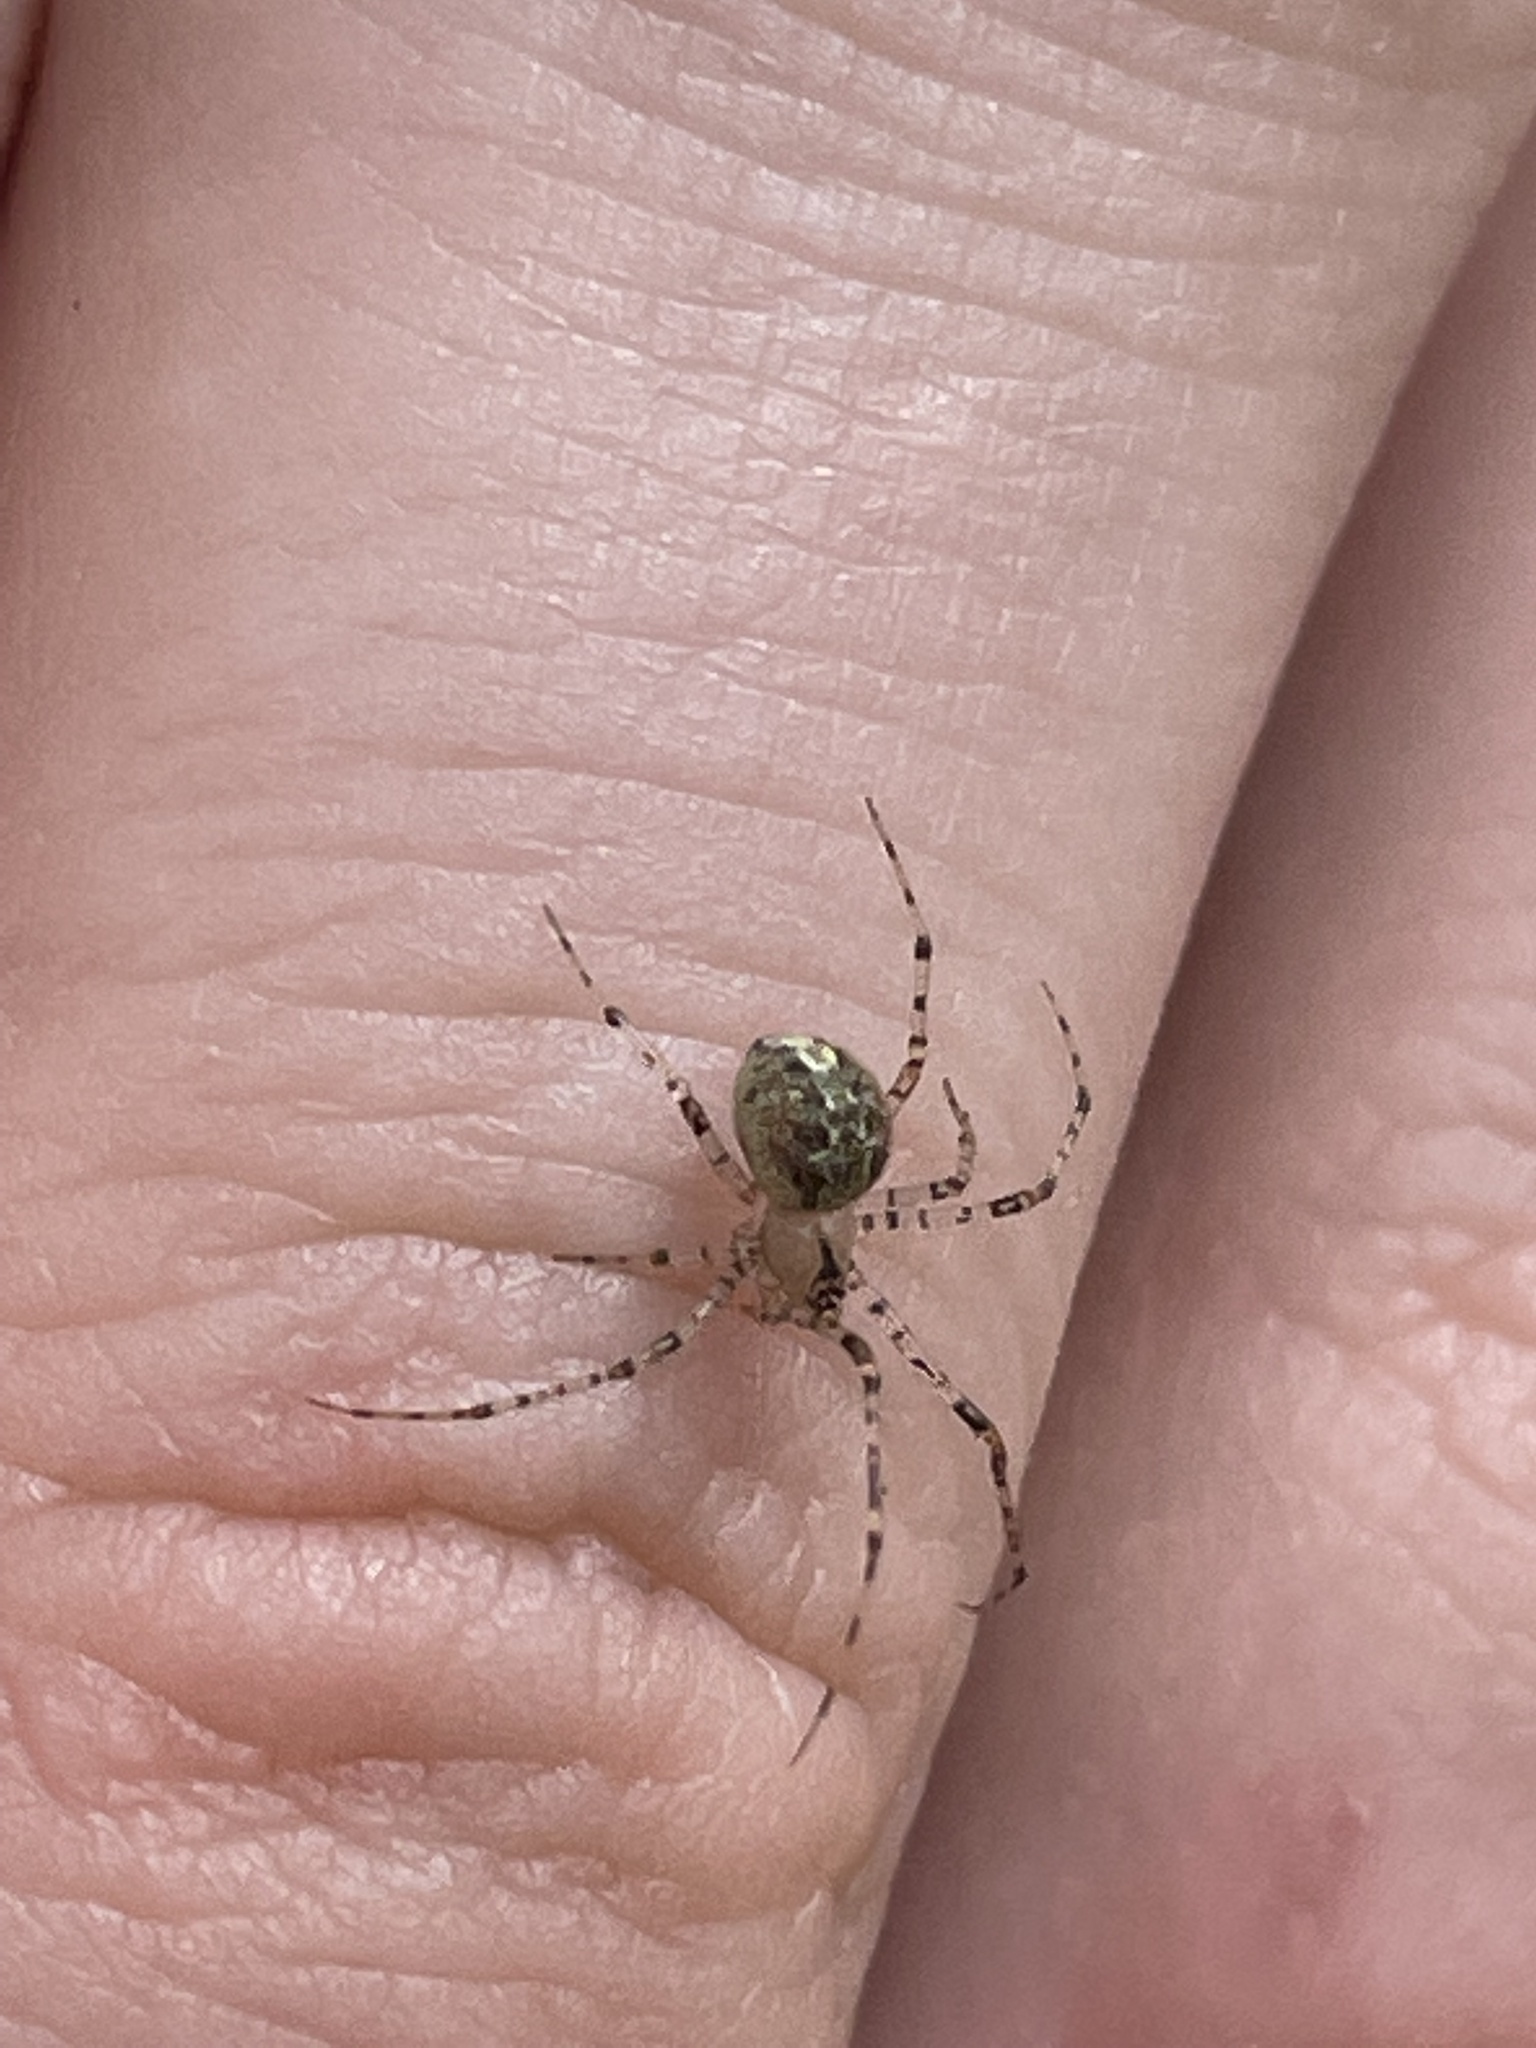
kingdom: Animalia
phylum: Arthropoda
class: Arachnida
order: Araneae
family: Theridiidae
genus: Platnickina
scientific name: Platnickina tincta
